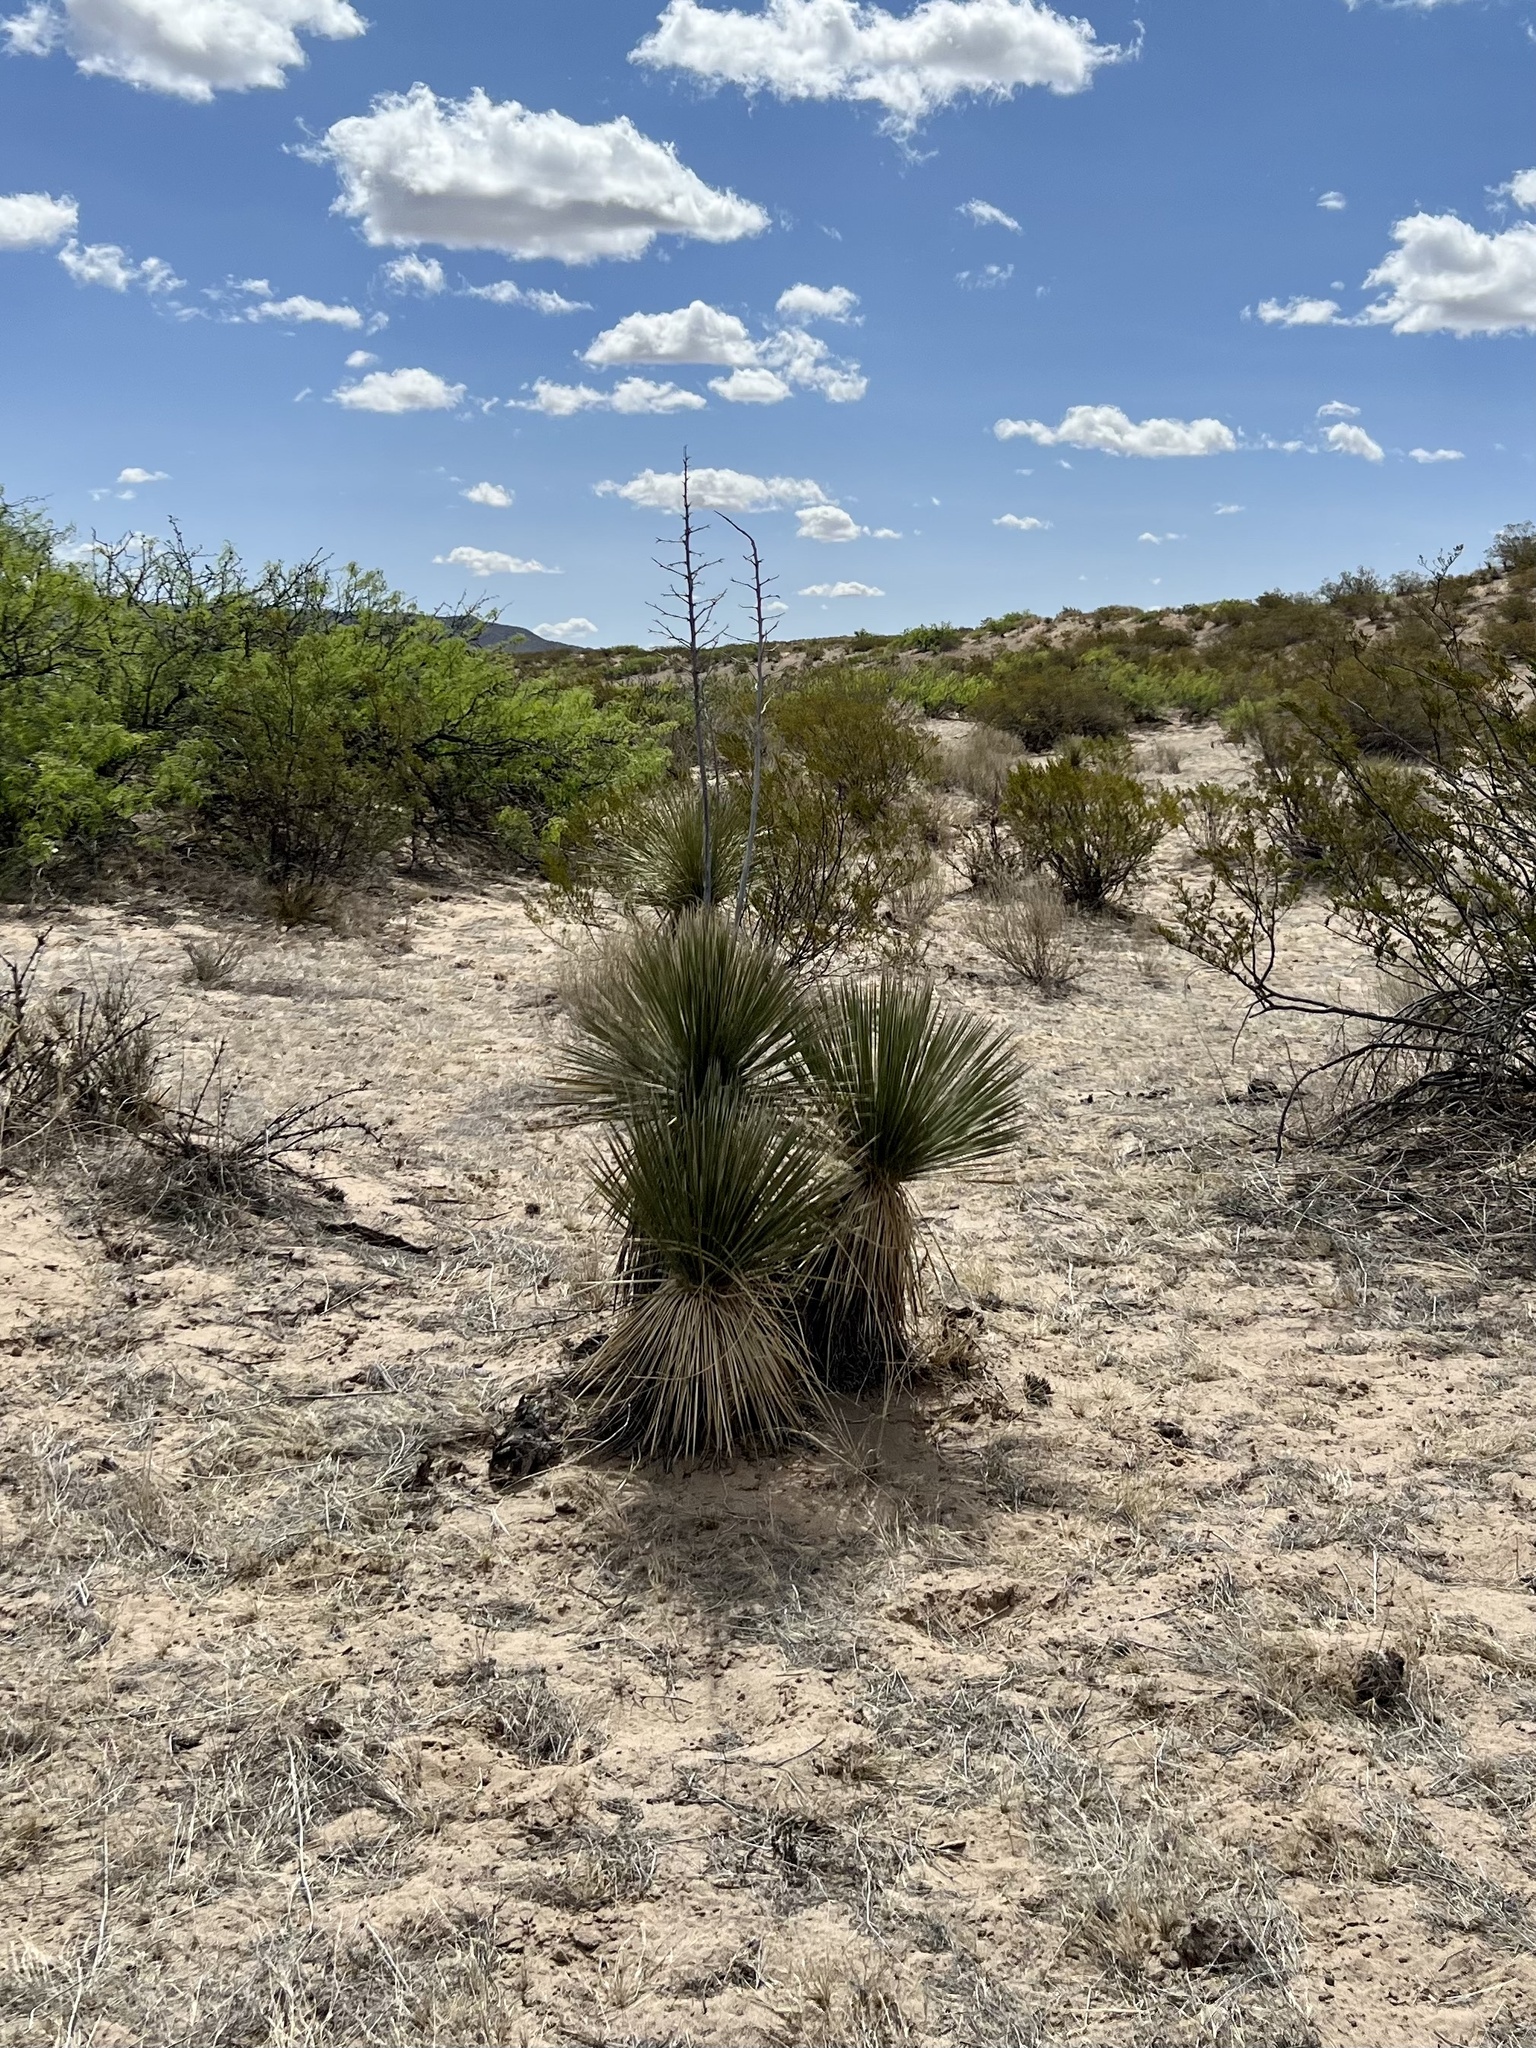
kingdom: Plantae
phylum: Tracheophyta
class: Liliopsida
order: Asparagales
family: Asparagaceae
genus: Yucca
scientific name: Yucca elata
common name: Palmella
